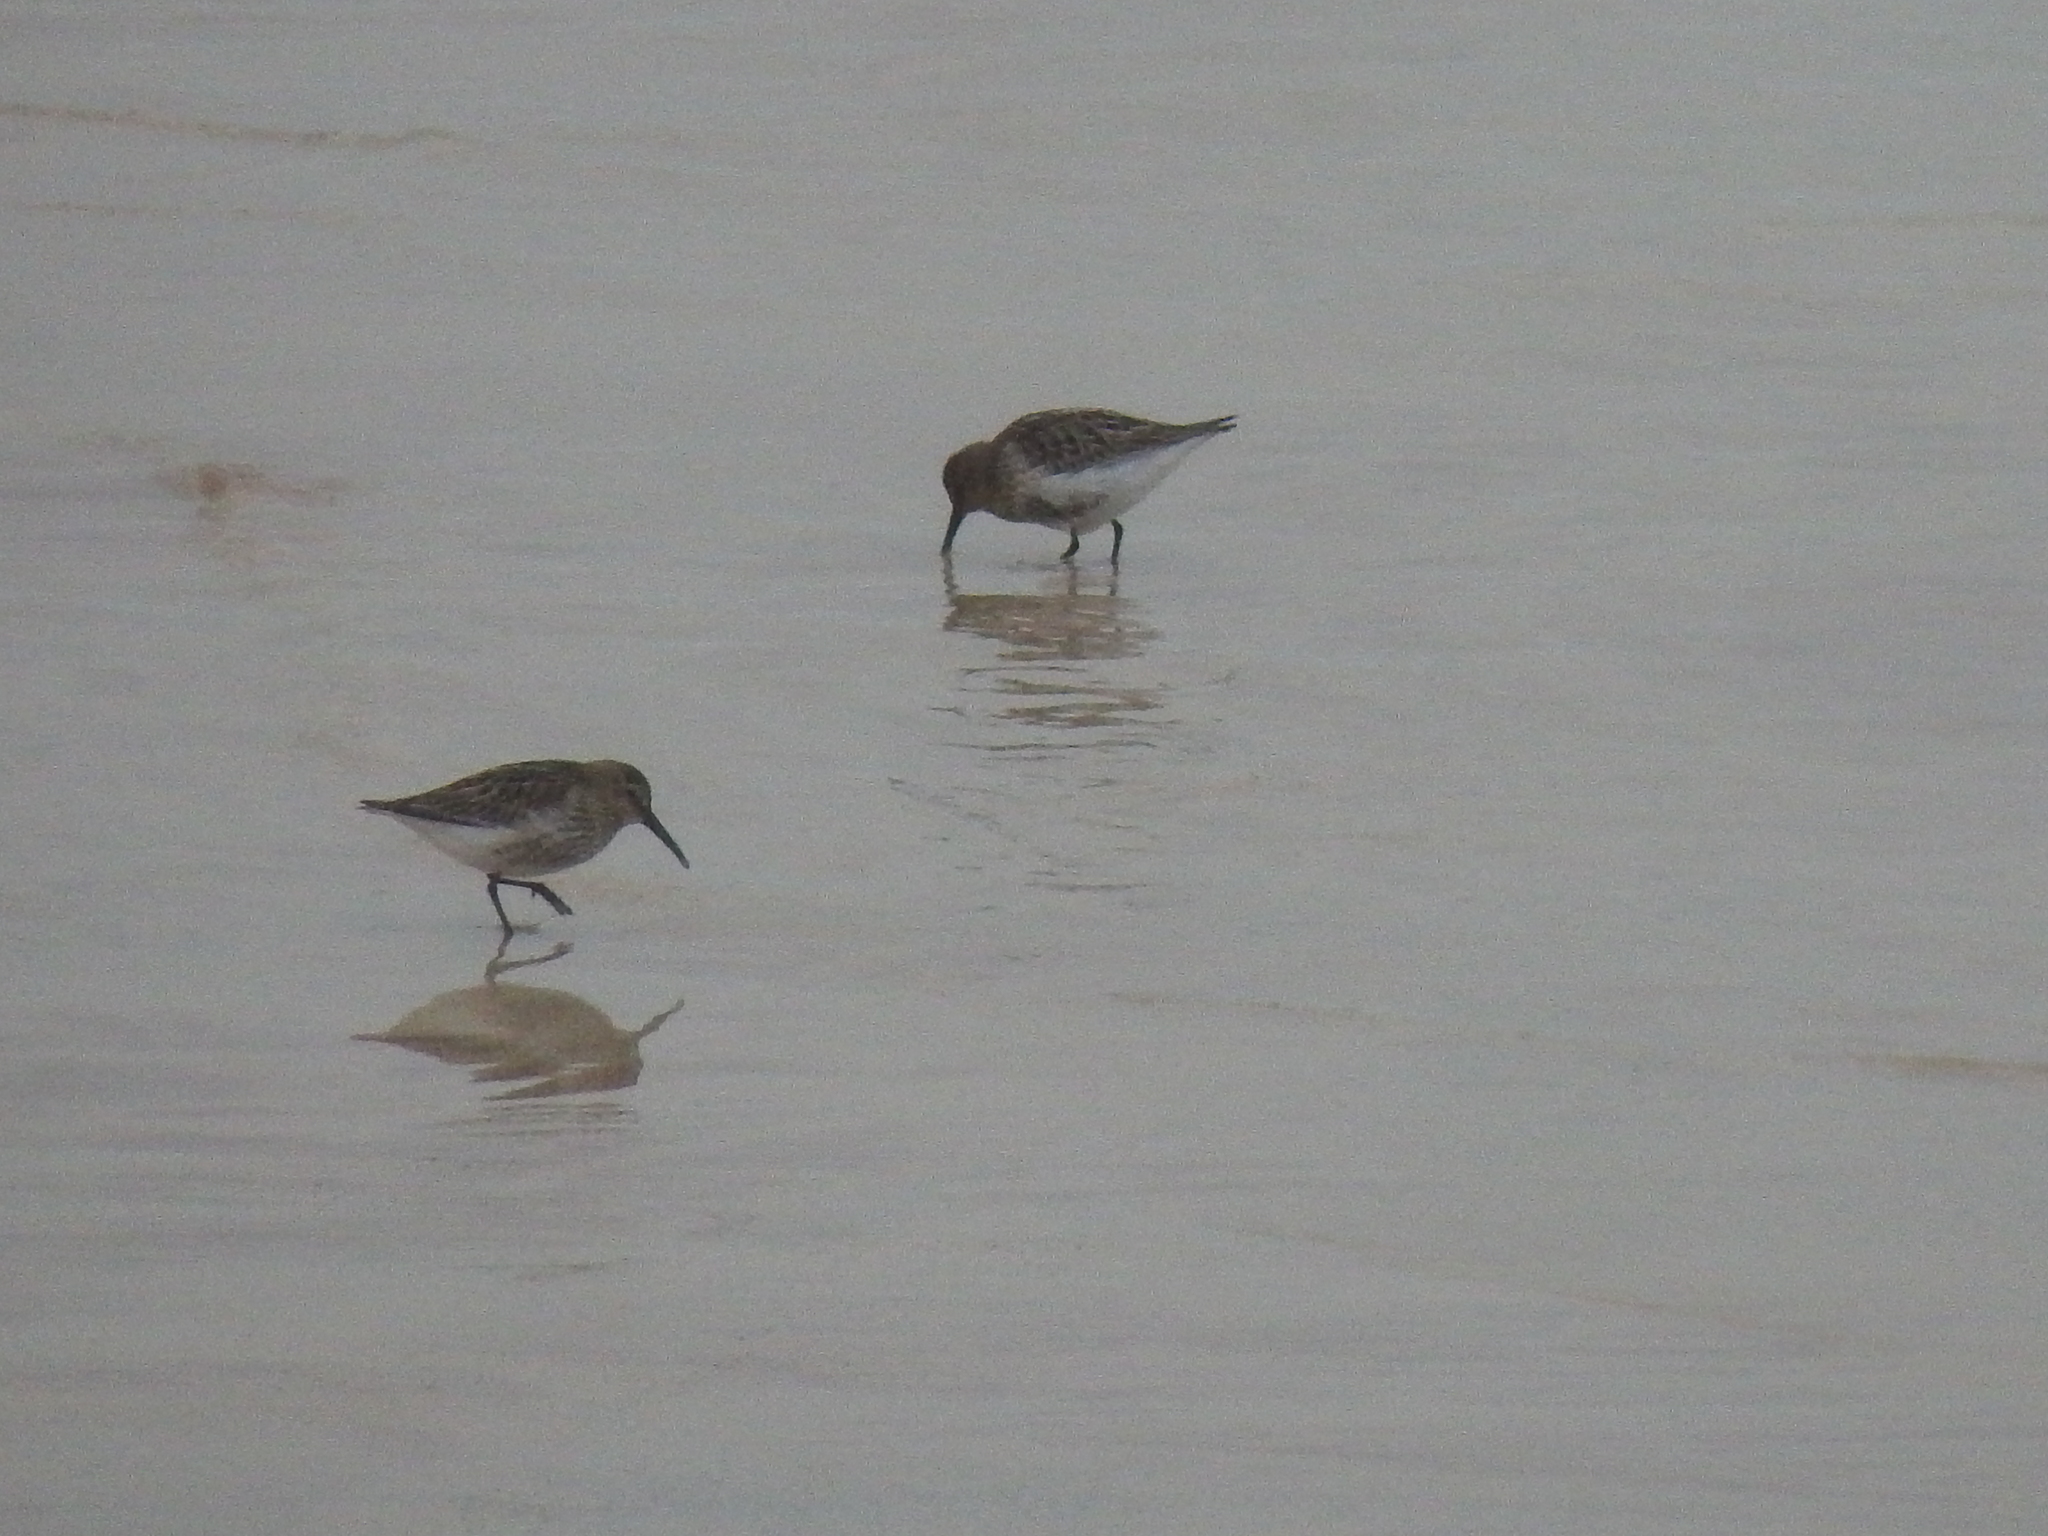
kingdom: Animalia
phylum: Chordata
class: Aves
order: Charadriiformes
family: Scolopacidae
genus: Calidris
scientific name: Calidris alpina
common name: Dunlin
